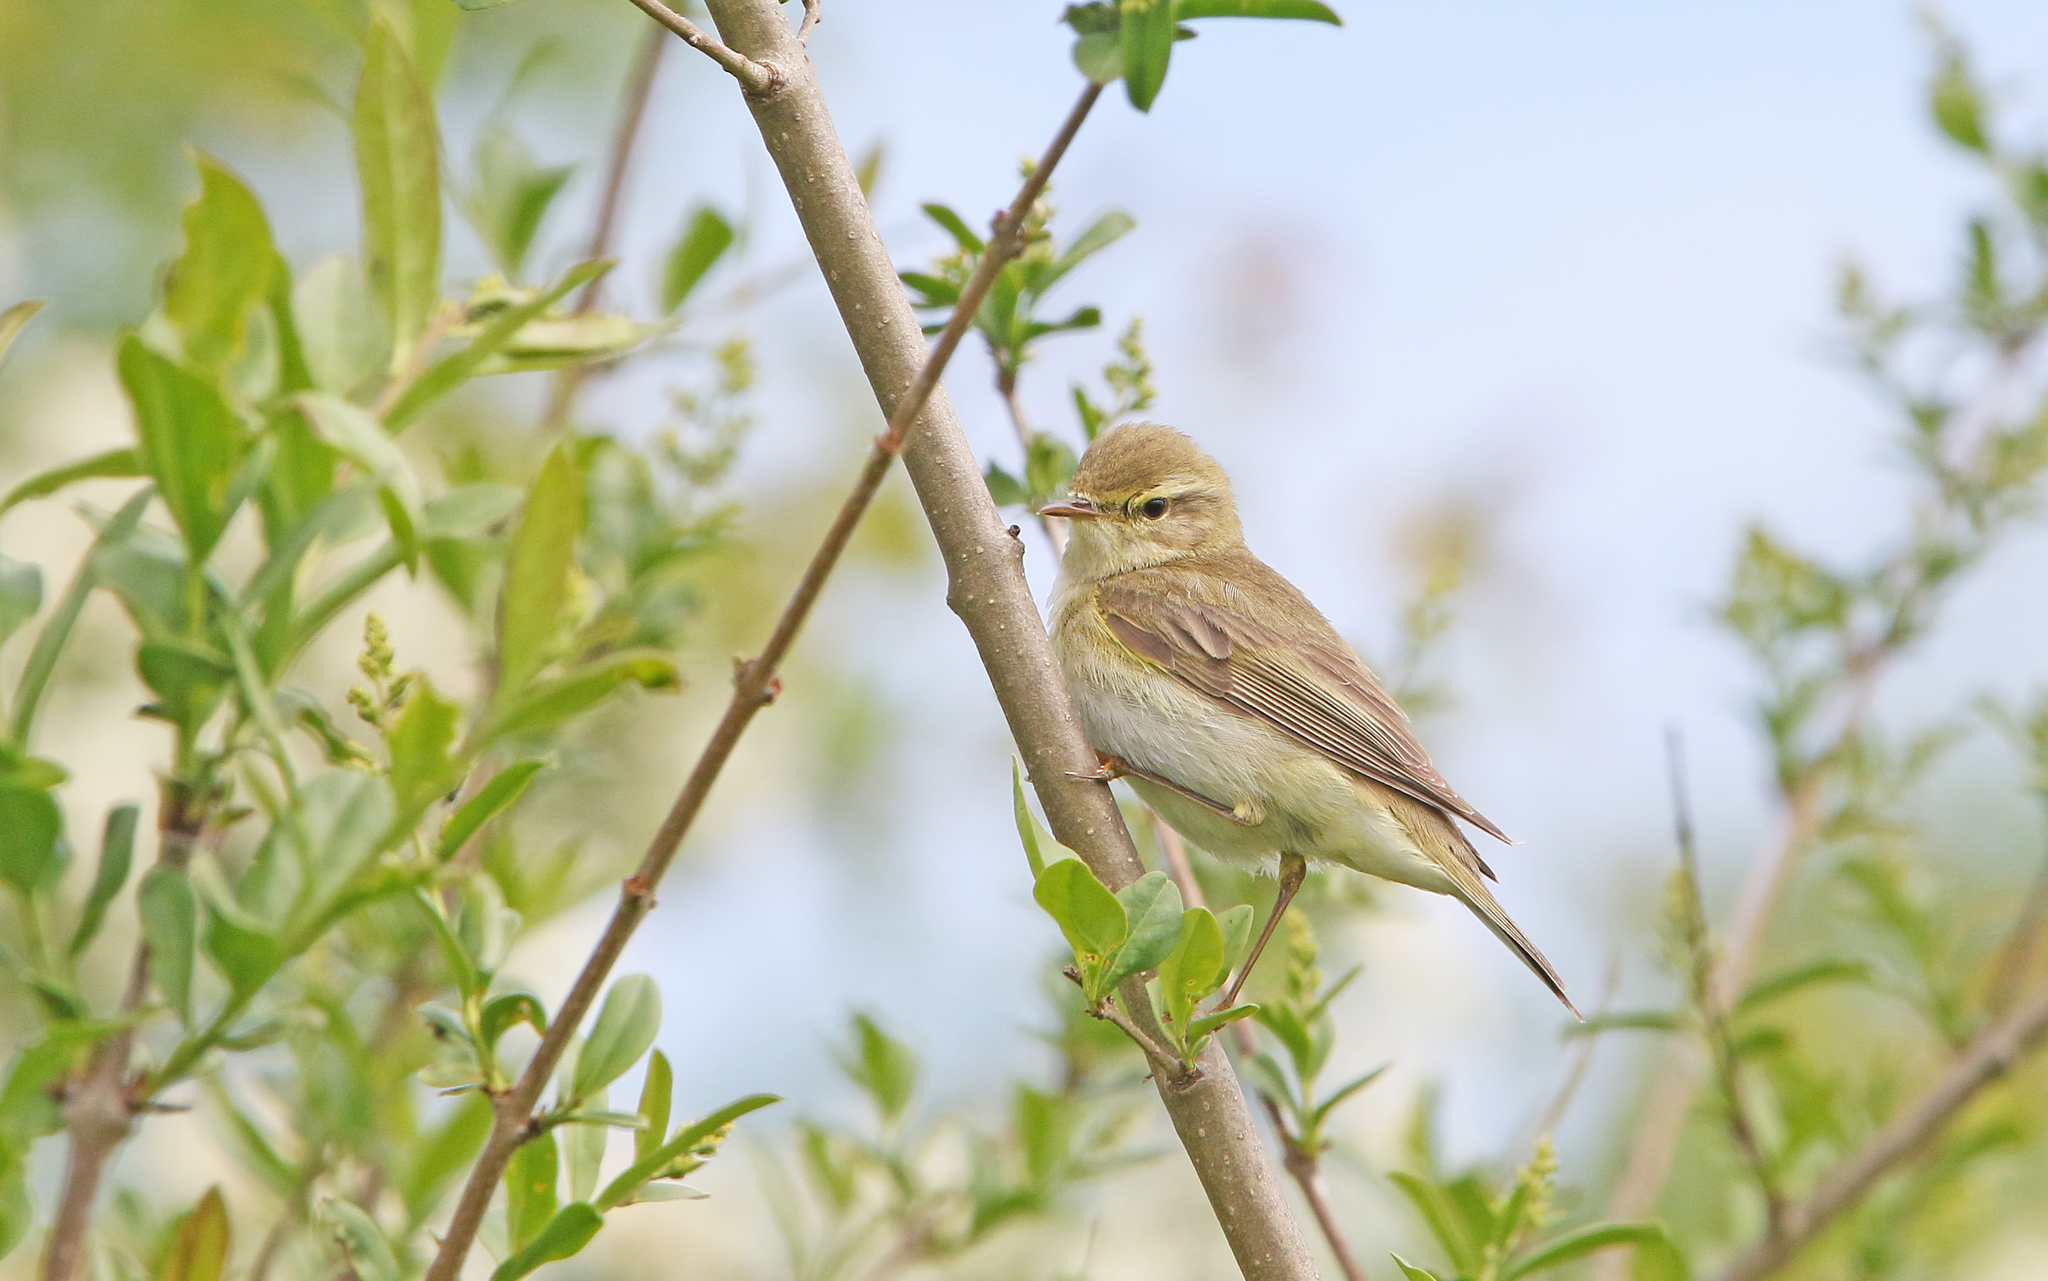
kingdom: Animalia
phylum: Chordata
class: Aves
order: Passeriformes
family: Phylloscopidae
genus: Phylloscopus
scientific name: Phylloscopus trochilus
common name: Willow warbler
